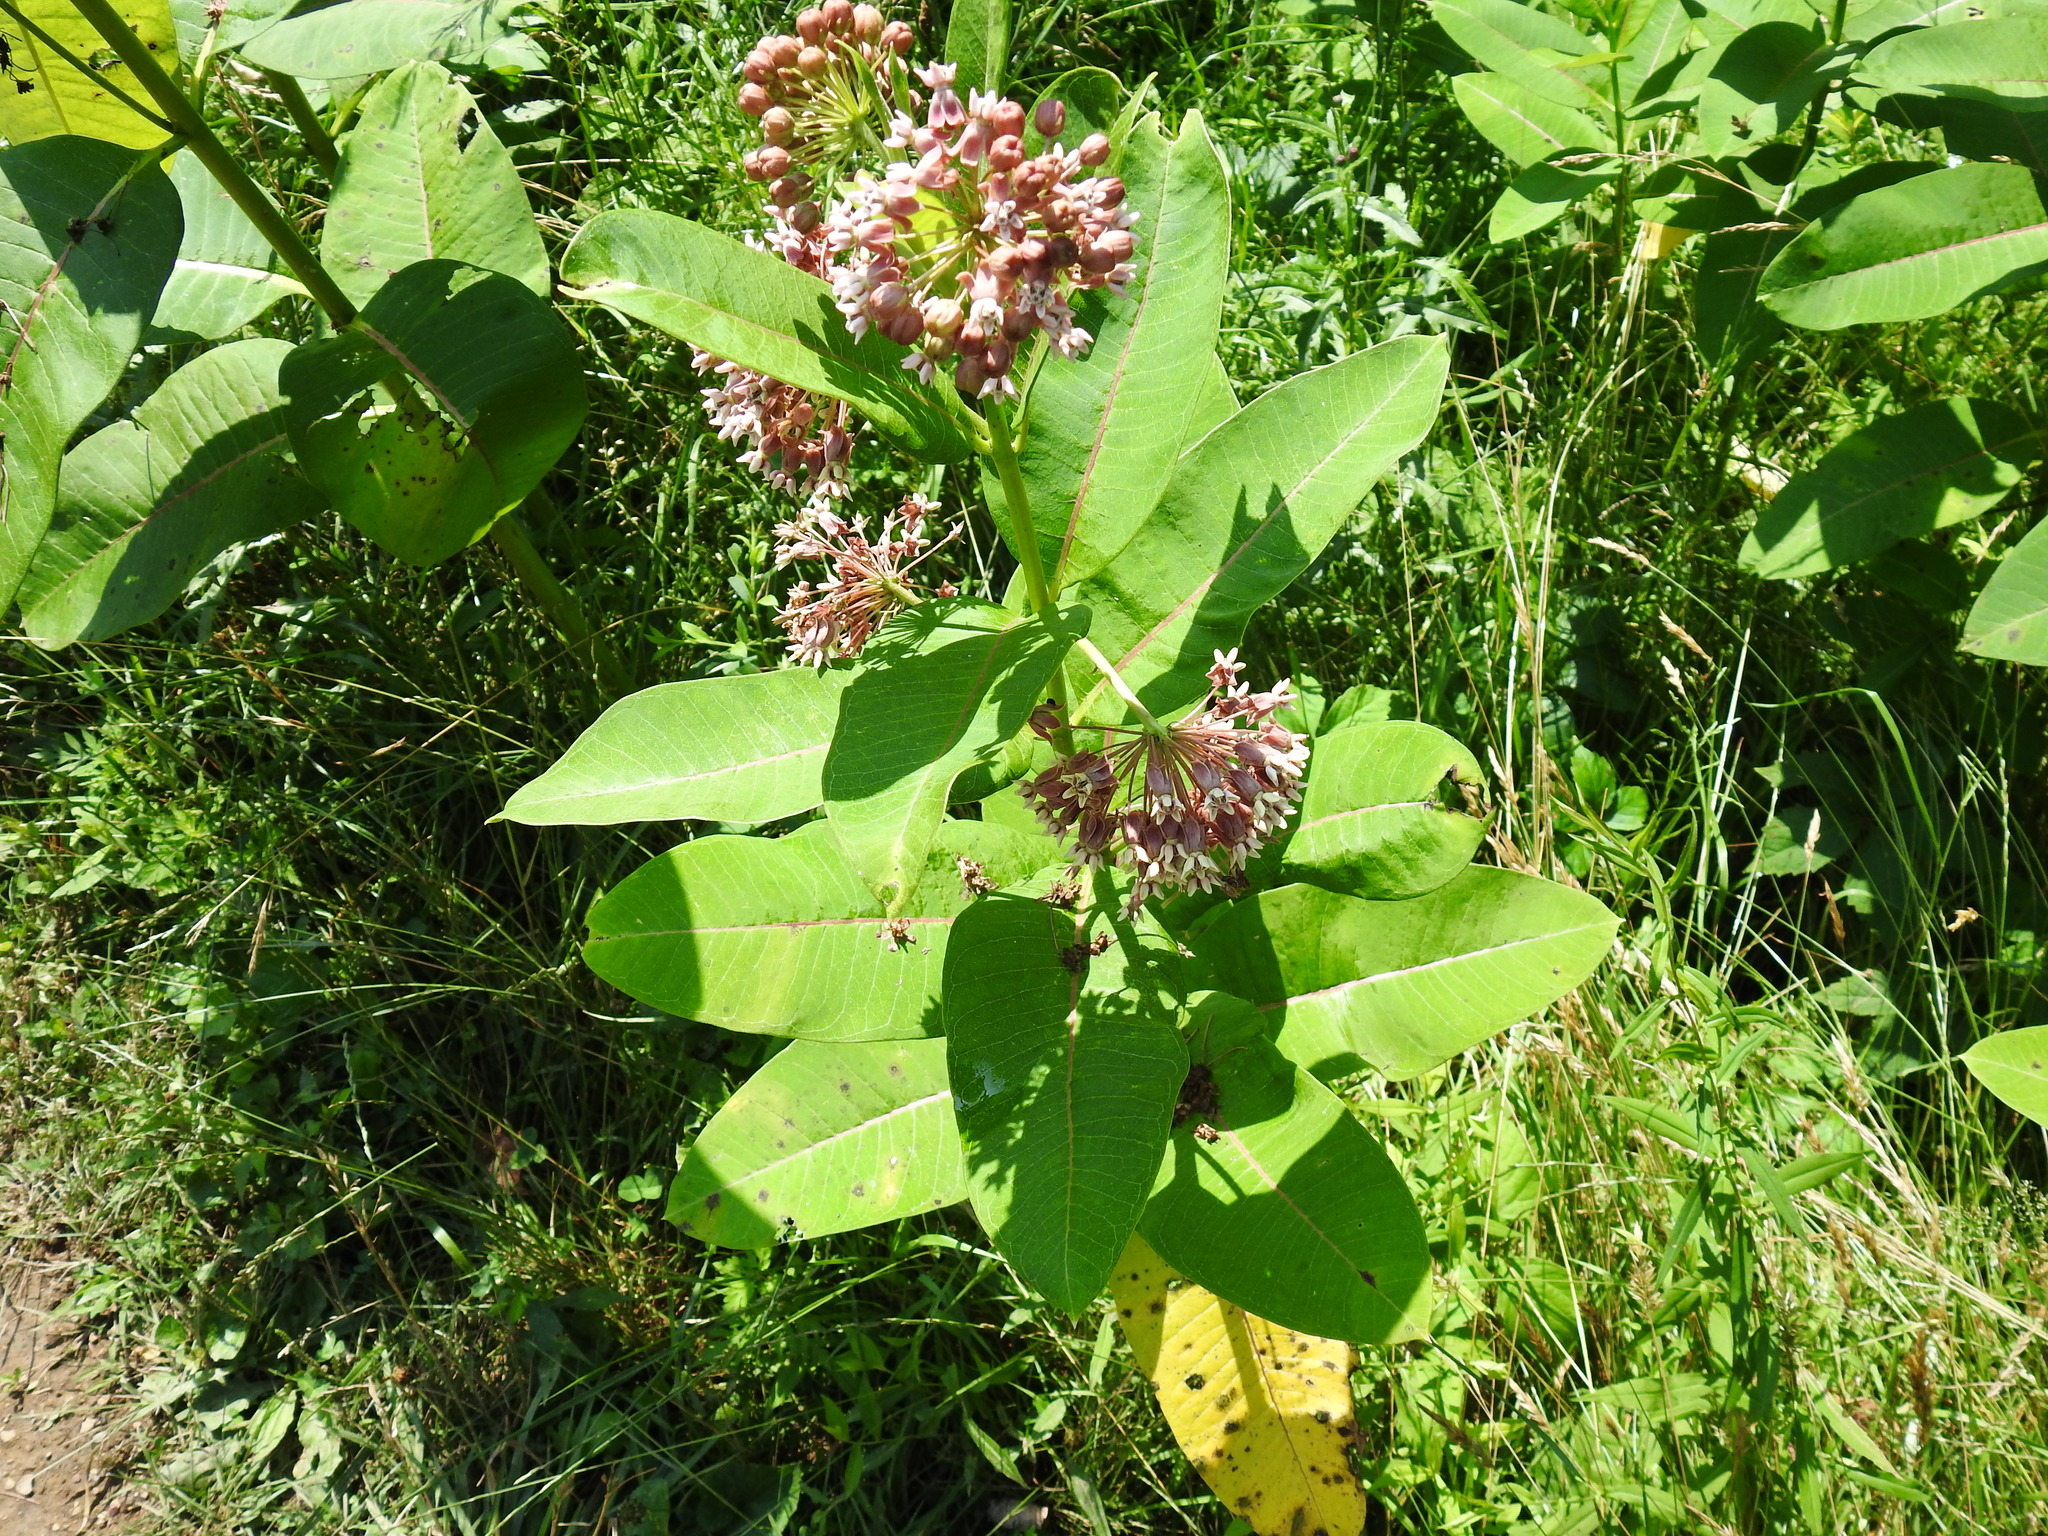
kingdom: Plantae
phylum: Tracheophyta
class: Magnoliopsida
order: Gentianales
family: Apocynaceae
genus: Asclepias
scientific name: Asclepias syriaca
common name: Common milkweed
